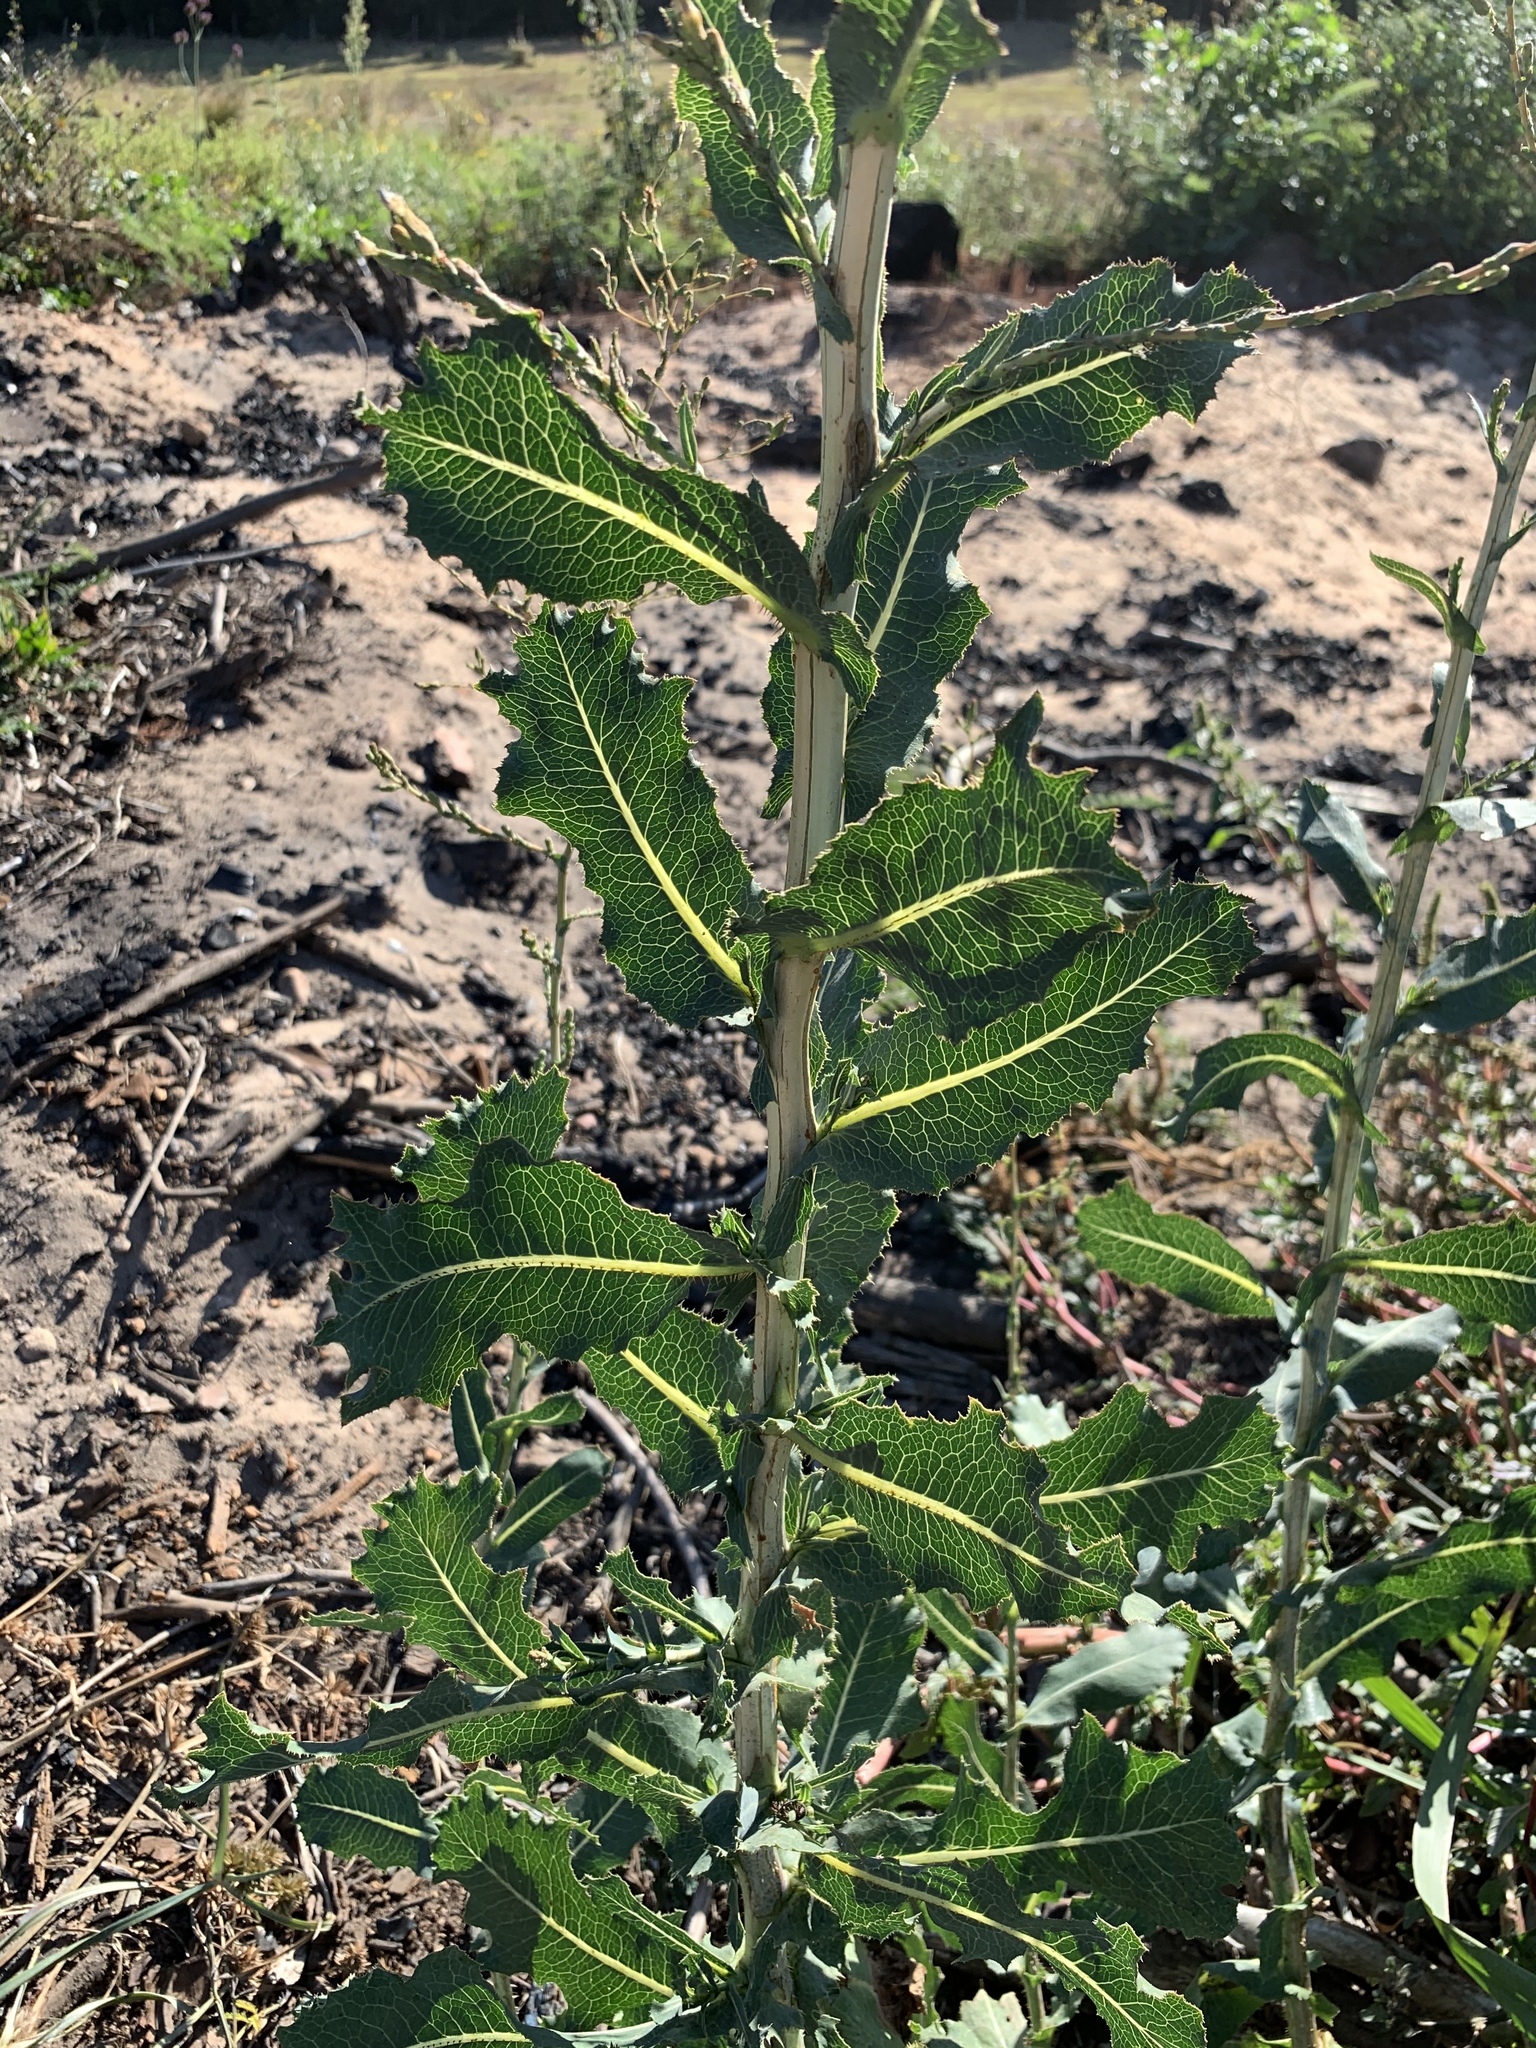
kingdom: Plantae
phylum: Tracheophyta
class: Magnoliopsida
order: Asterales
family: Asteraceae
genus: Lactuca
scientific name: Lactuca serriola
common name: Prickly lettuce
